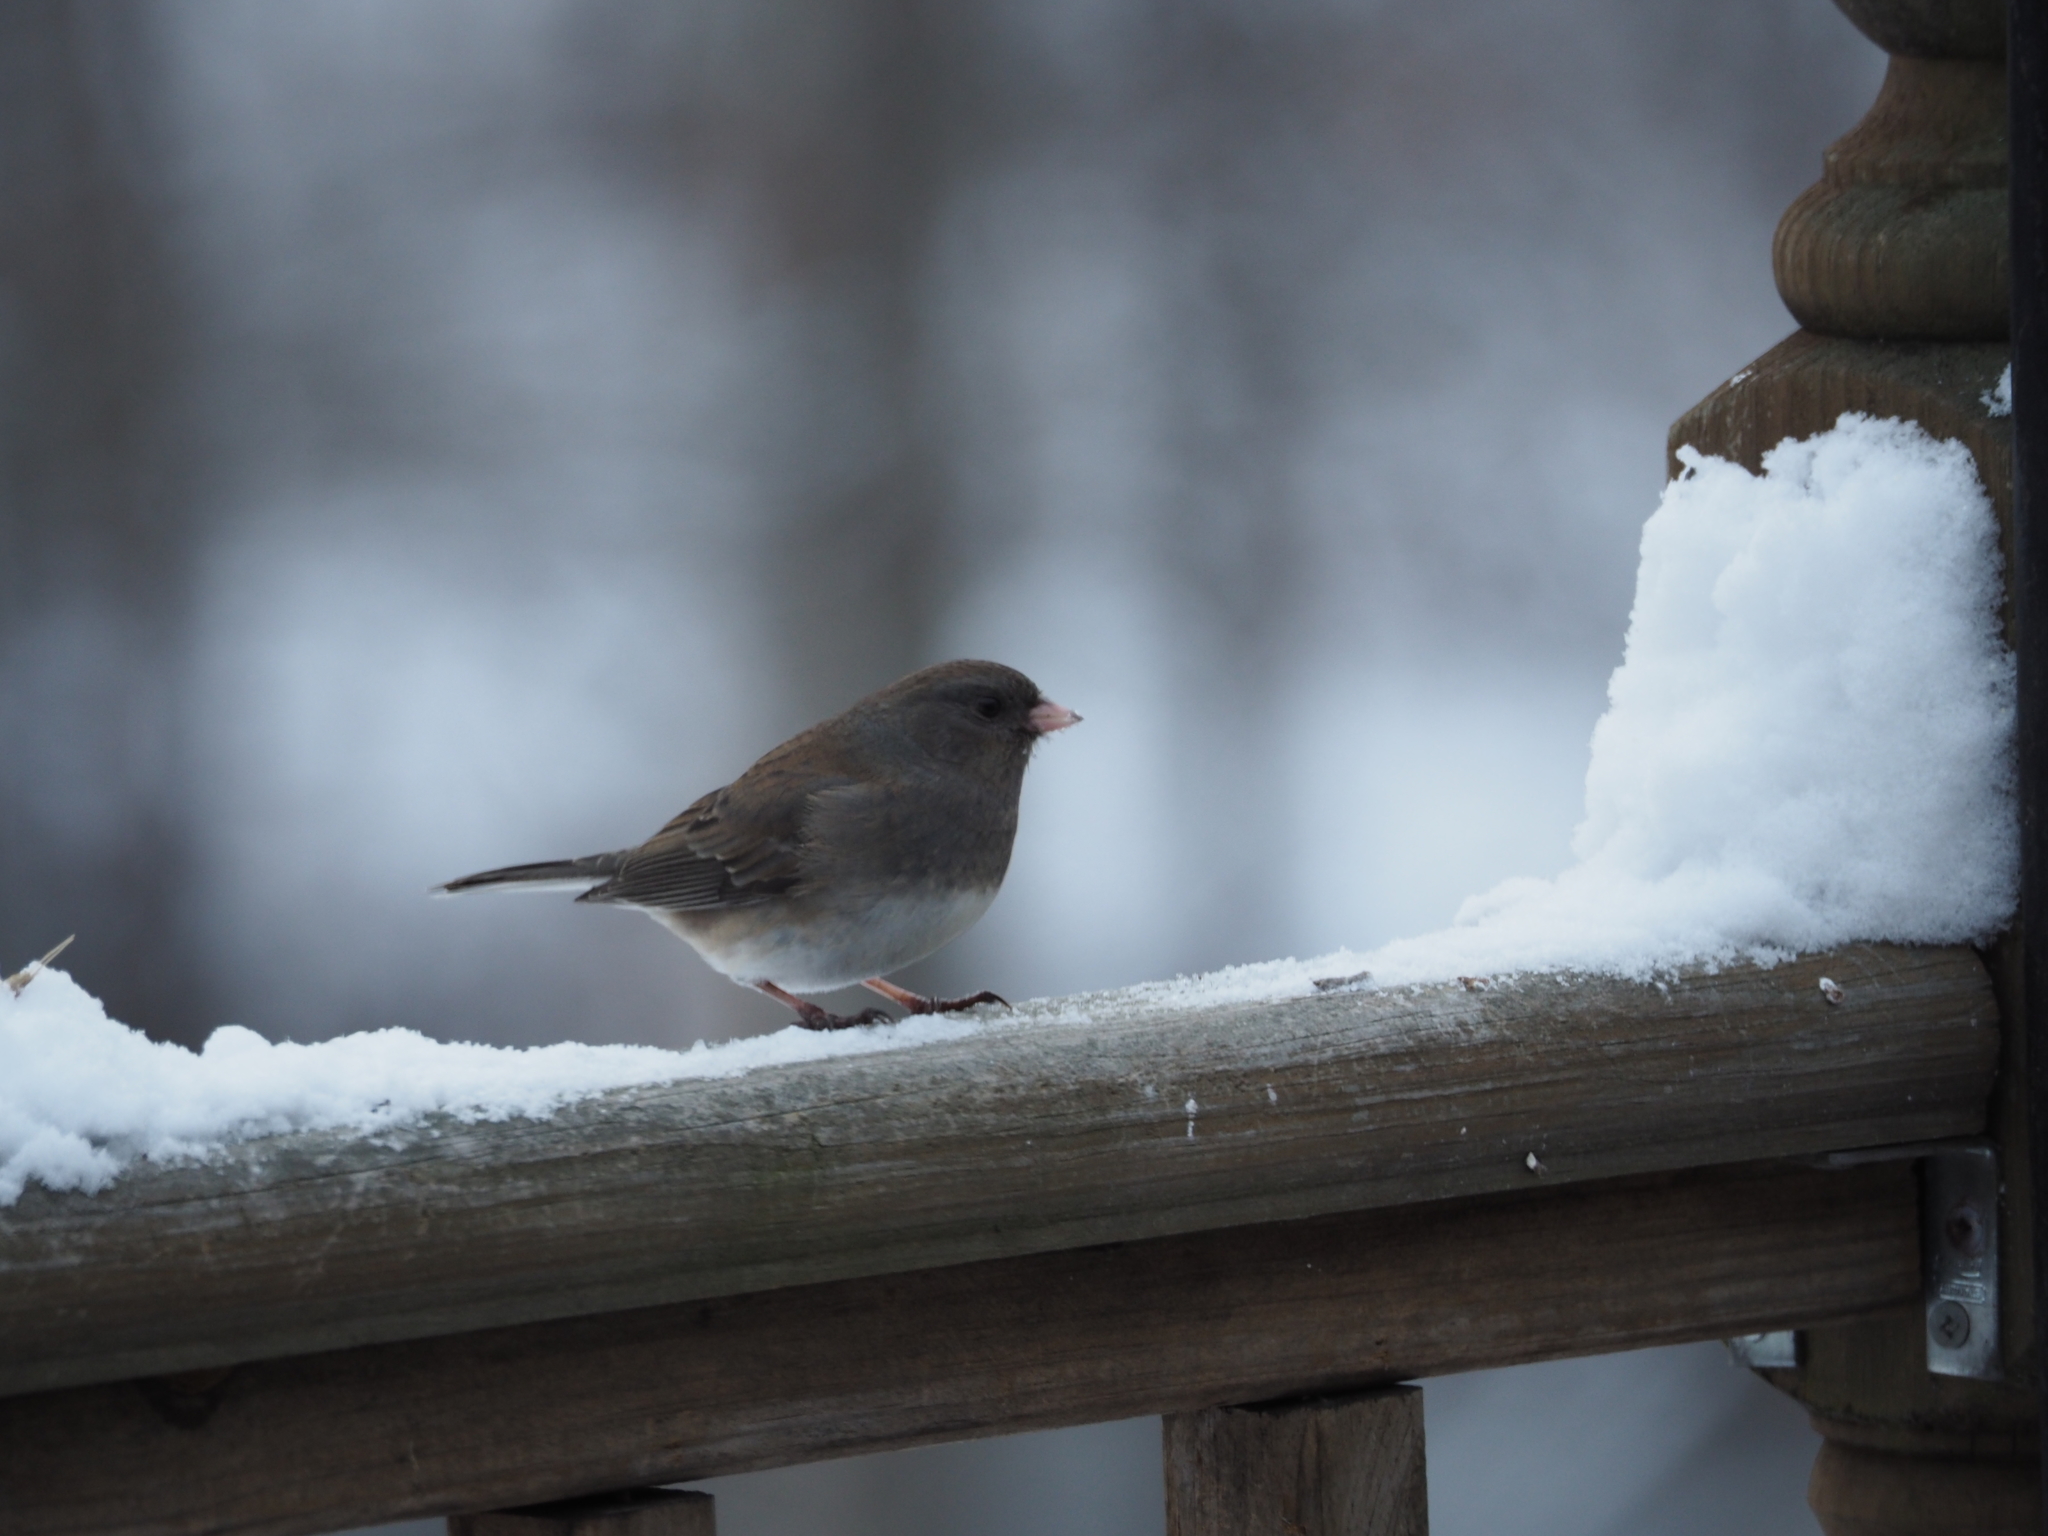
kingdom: Animalia
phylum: Chordata
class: Aves
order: Passeriformes
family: Passerellidae
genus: Junco
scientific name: Junco hyemalis
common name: Dark-eyed junco
